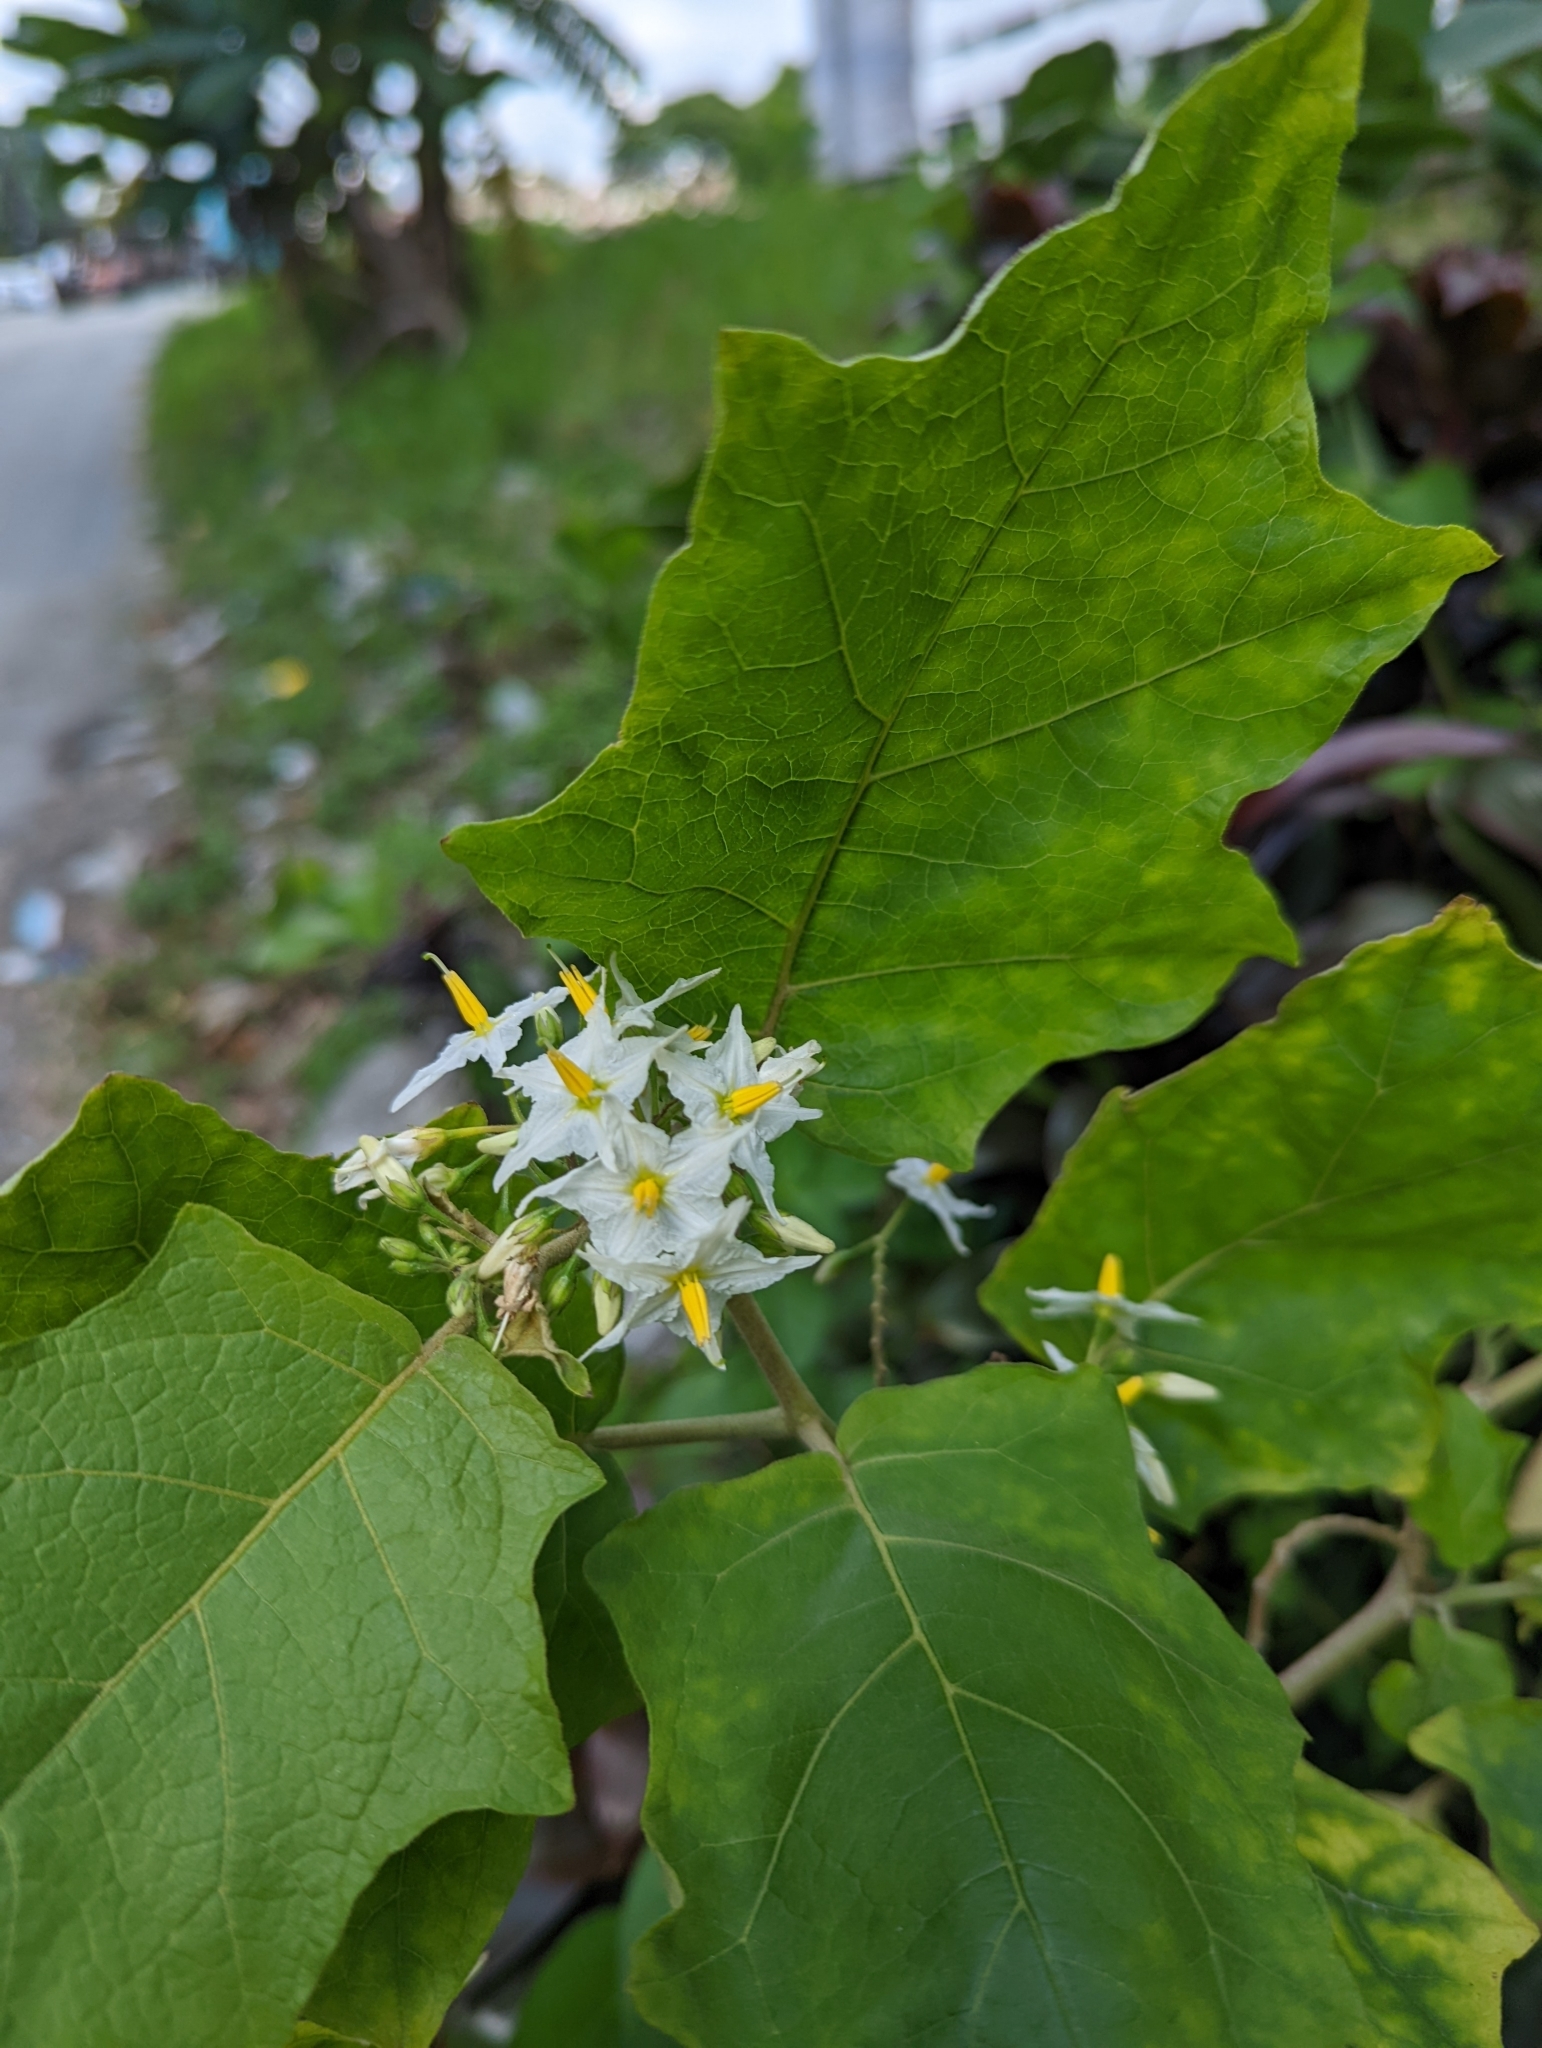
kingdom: Plantae
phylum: Tracheophyta
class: Magnoliopsida
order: Solanales
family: Solanaceae
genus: Solanum
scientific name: Solanum torvum
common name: Turkey berry
